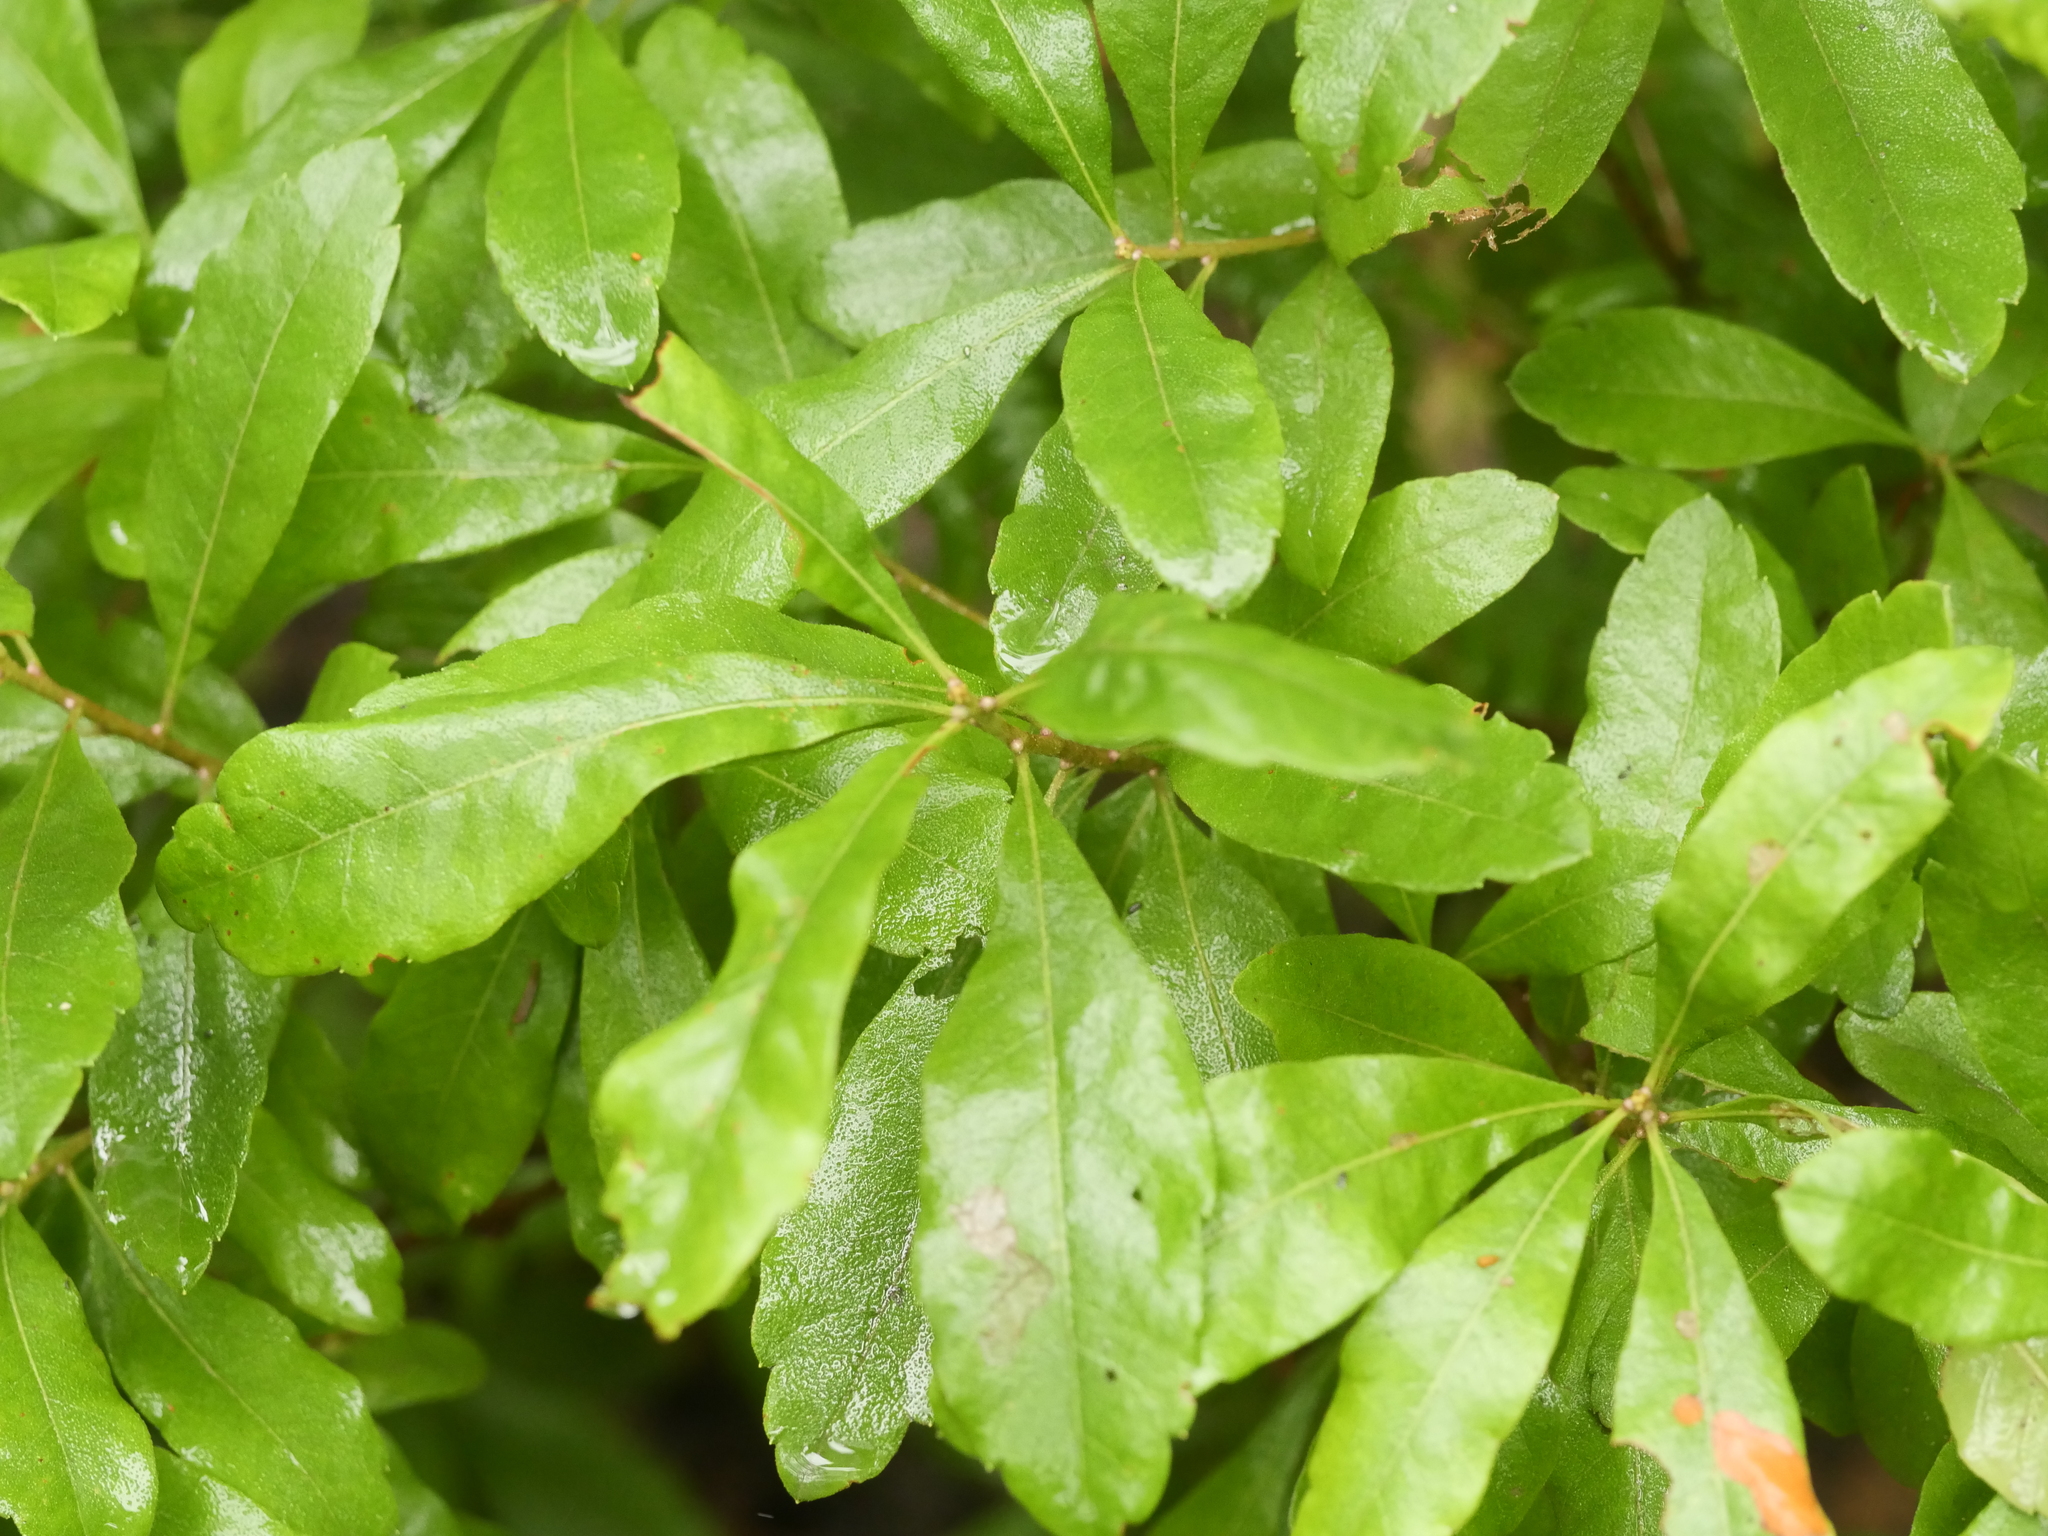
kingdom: Plantae
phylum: Tracheophyta
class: Magnoliopsida
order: Fagales
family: Myricaceae
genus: Morella
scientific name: Morella pensylvanica
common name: Northern bayberry
